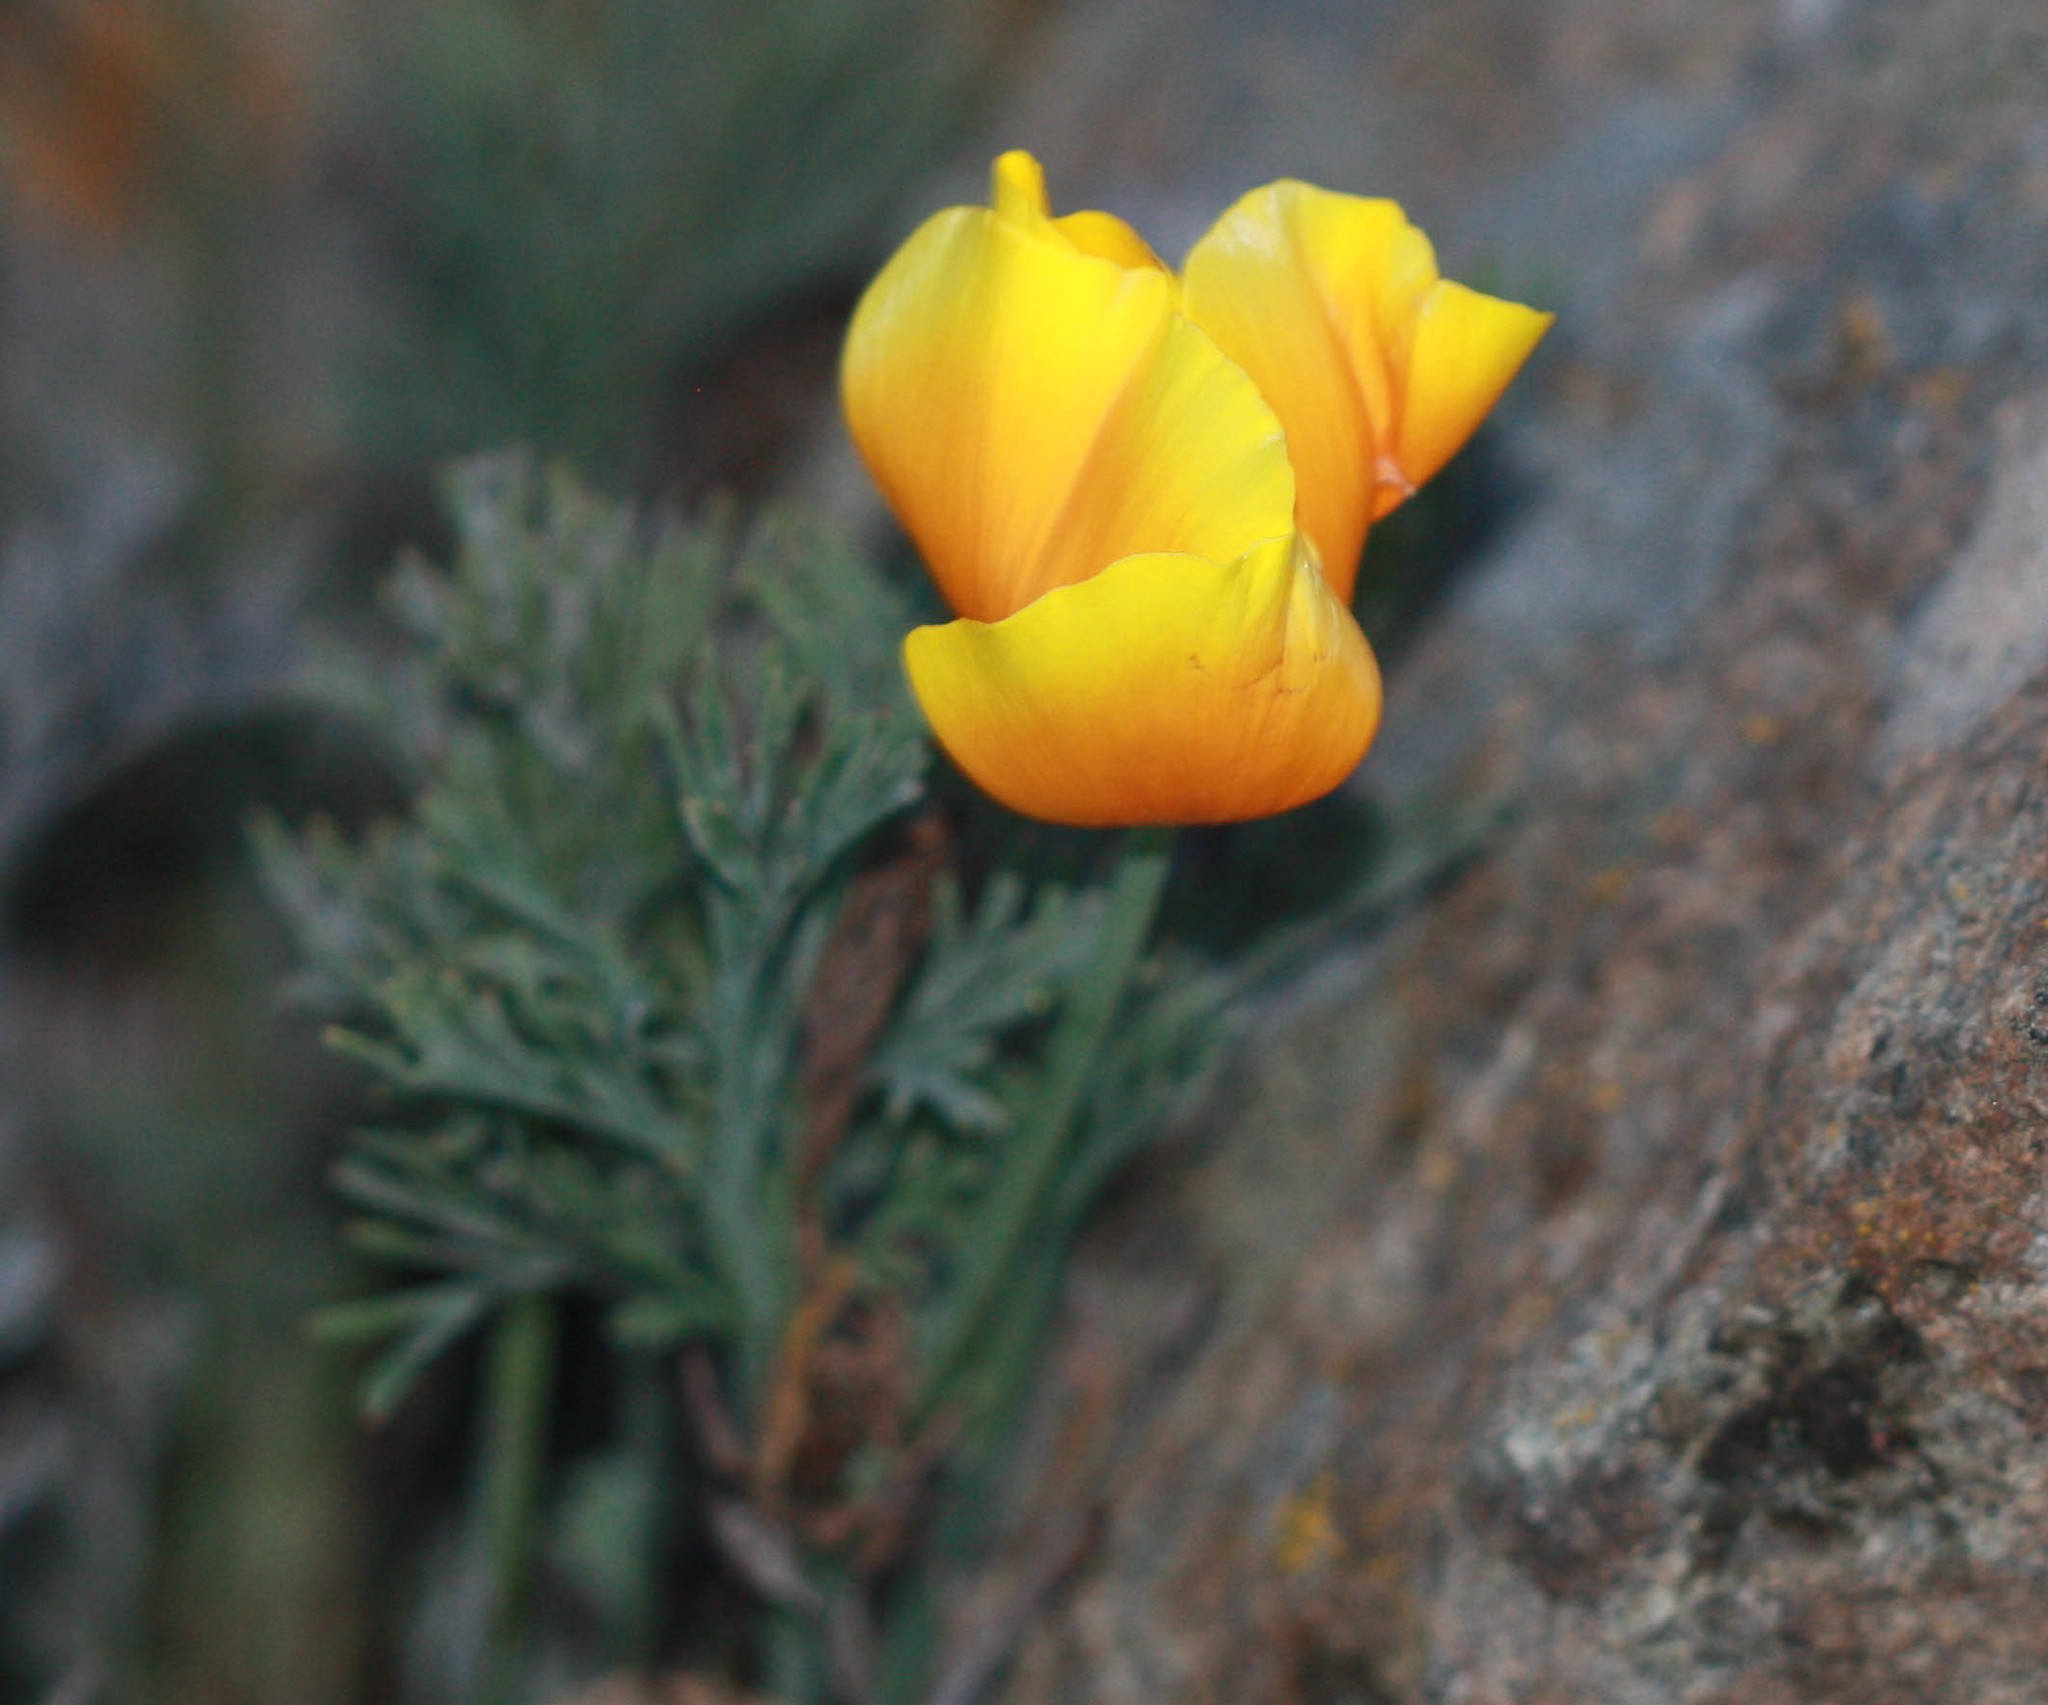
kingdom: Plantae
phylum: Tracheophyta
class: Magnoliopsida
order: Ranunculales
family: Papaveraceae
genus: Eschscholzia
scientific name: Eschscholzia californica
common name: California poppy
